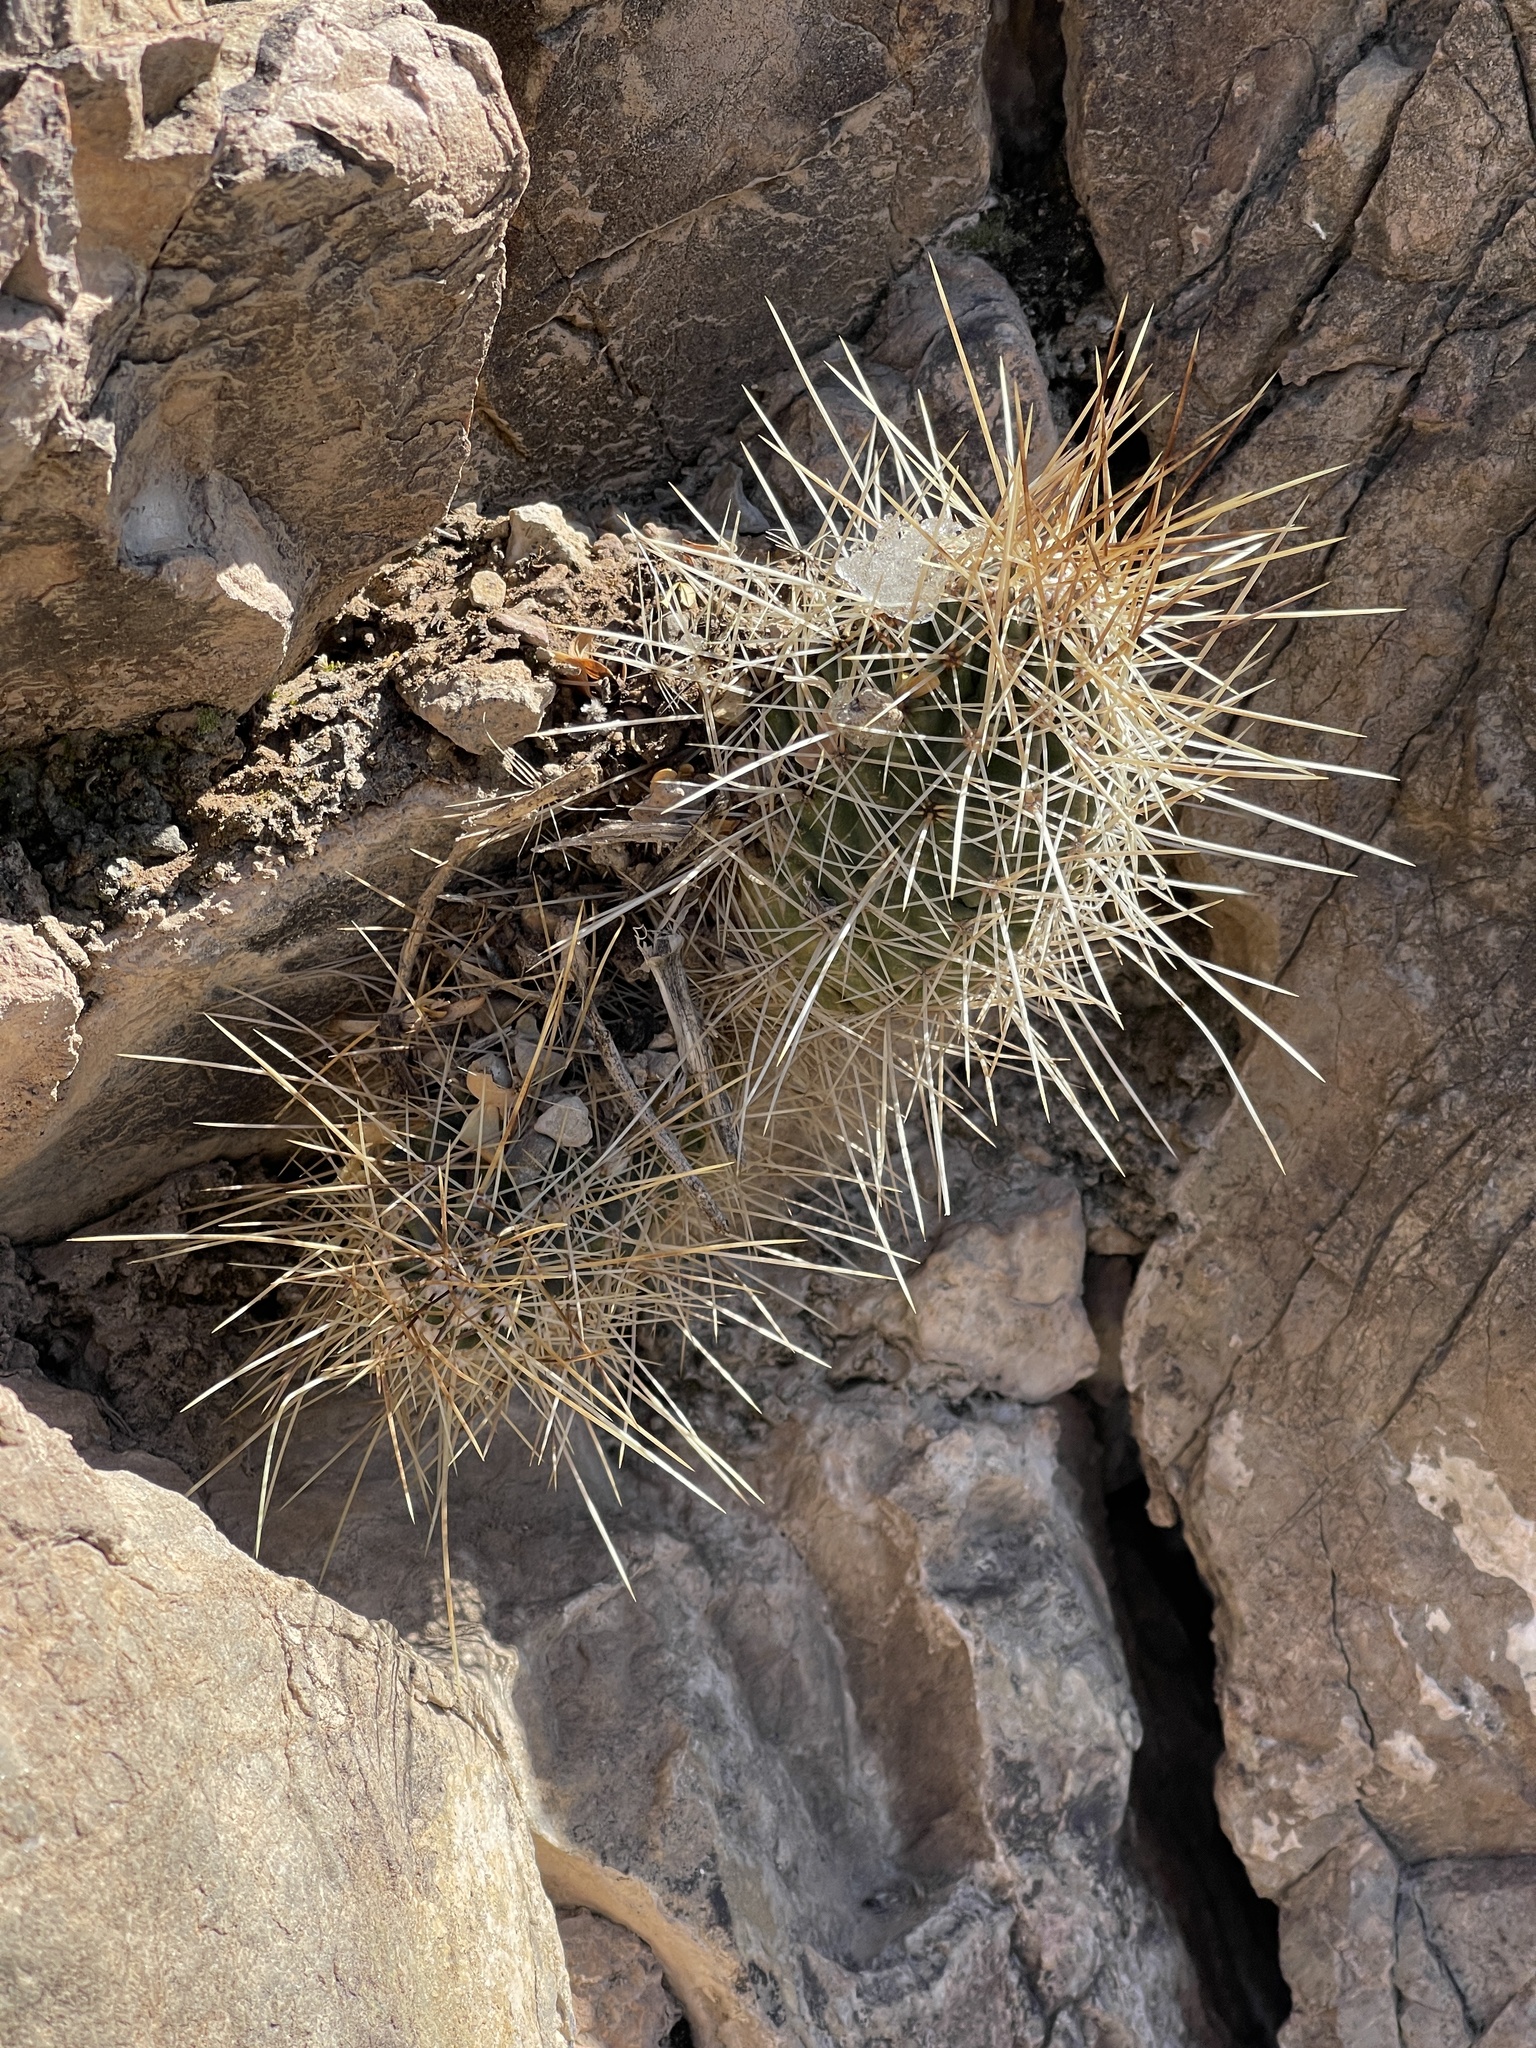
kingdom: Plantae
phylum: Tracheophyta
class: Magnoliopsida
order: Caryophyllales
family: Cactaceae
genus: Echinocereus
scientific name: Echinocereus stramineus
